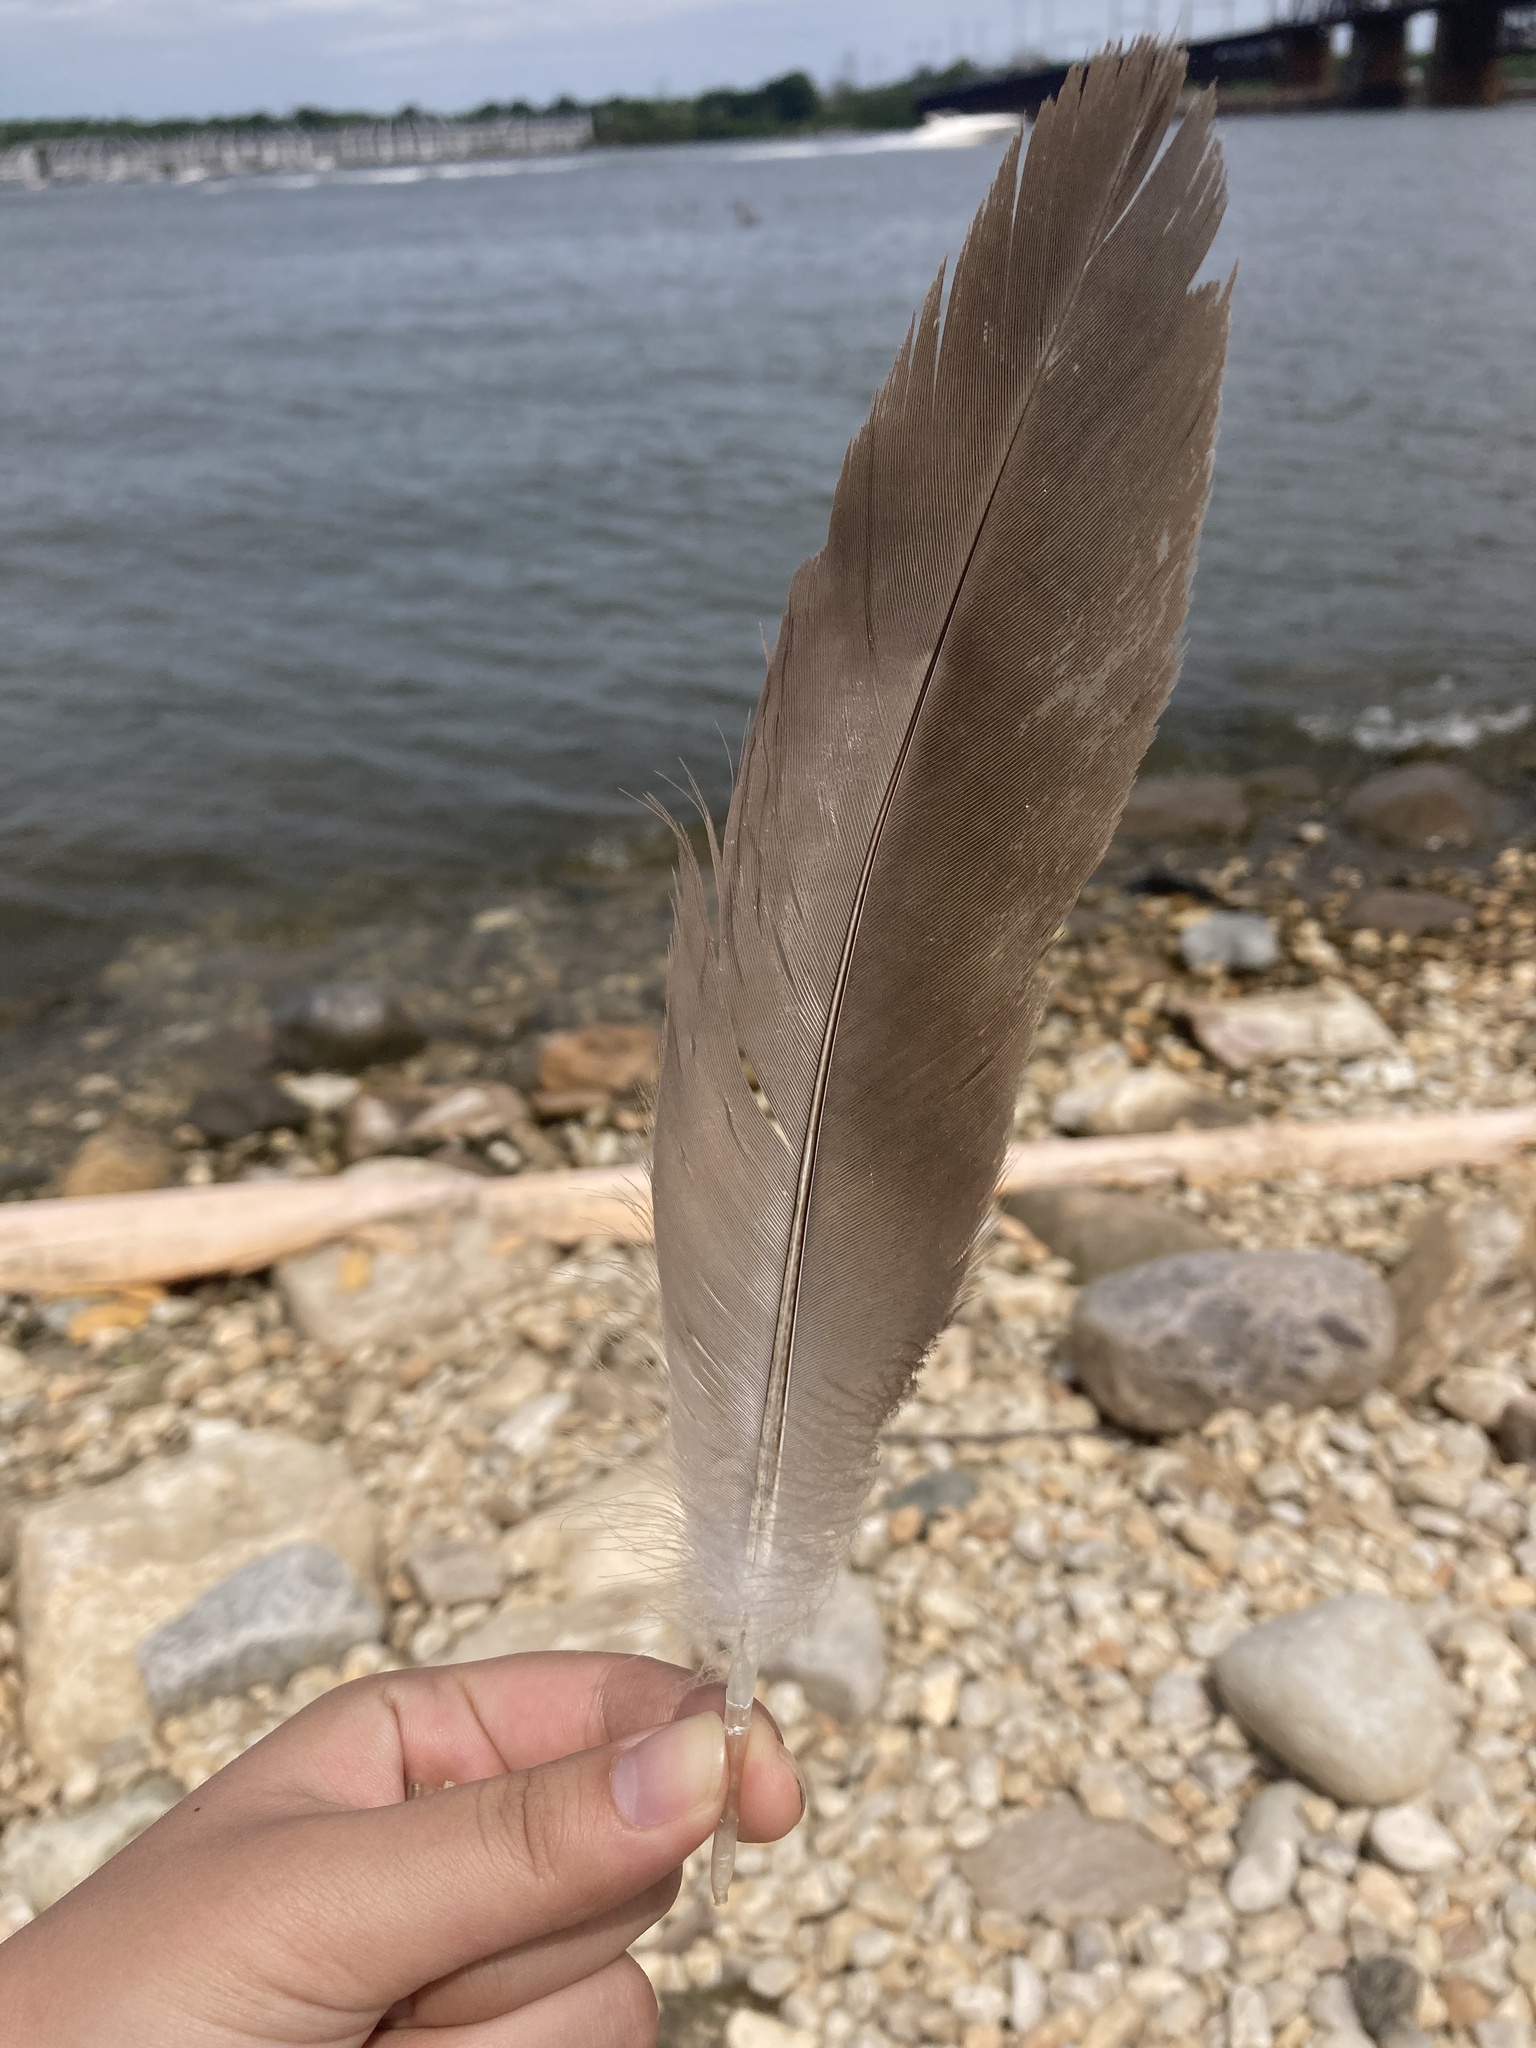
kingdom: Animalia
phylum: Chordata
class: Aves
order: Anseriformes
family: Anatidae
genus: Branta
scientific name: Branta canadensis
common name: Canada goose
